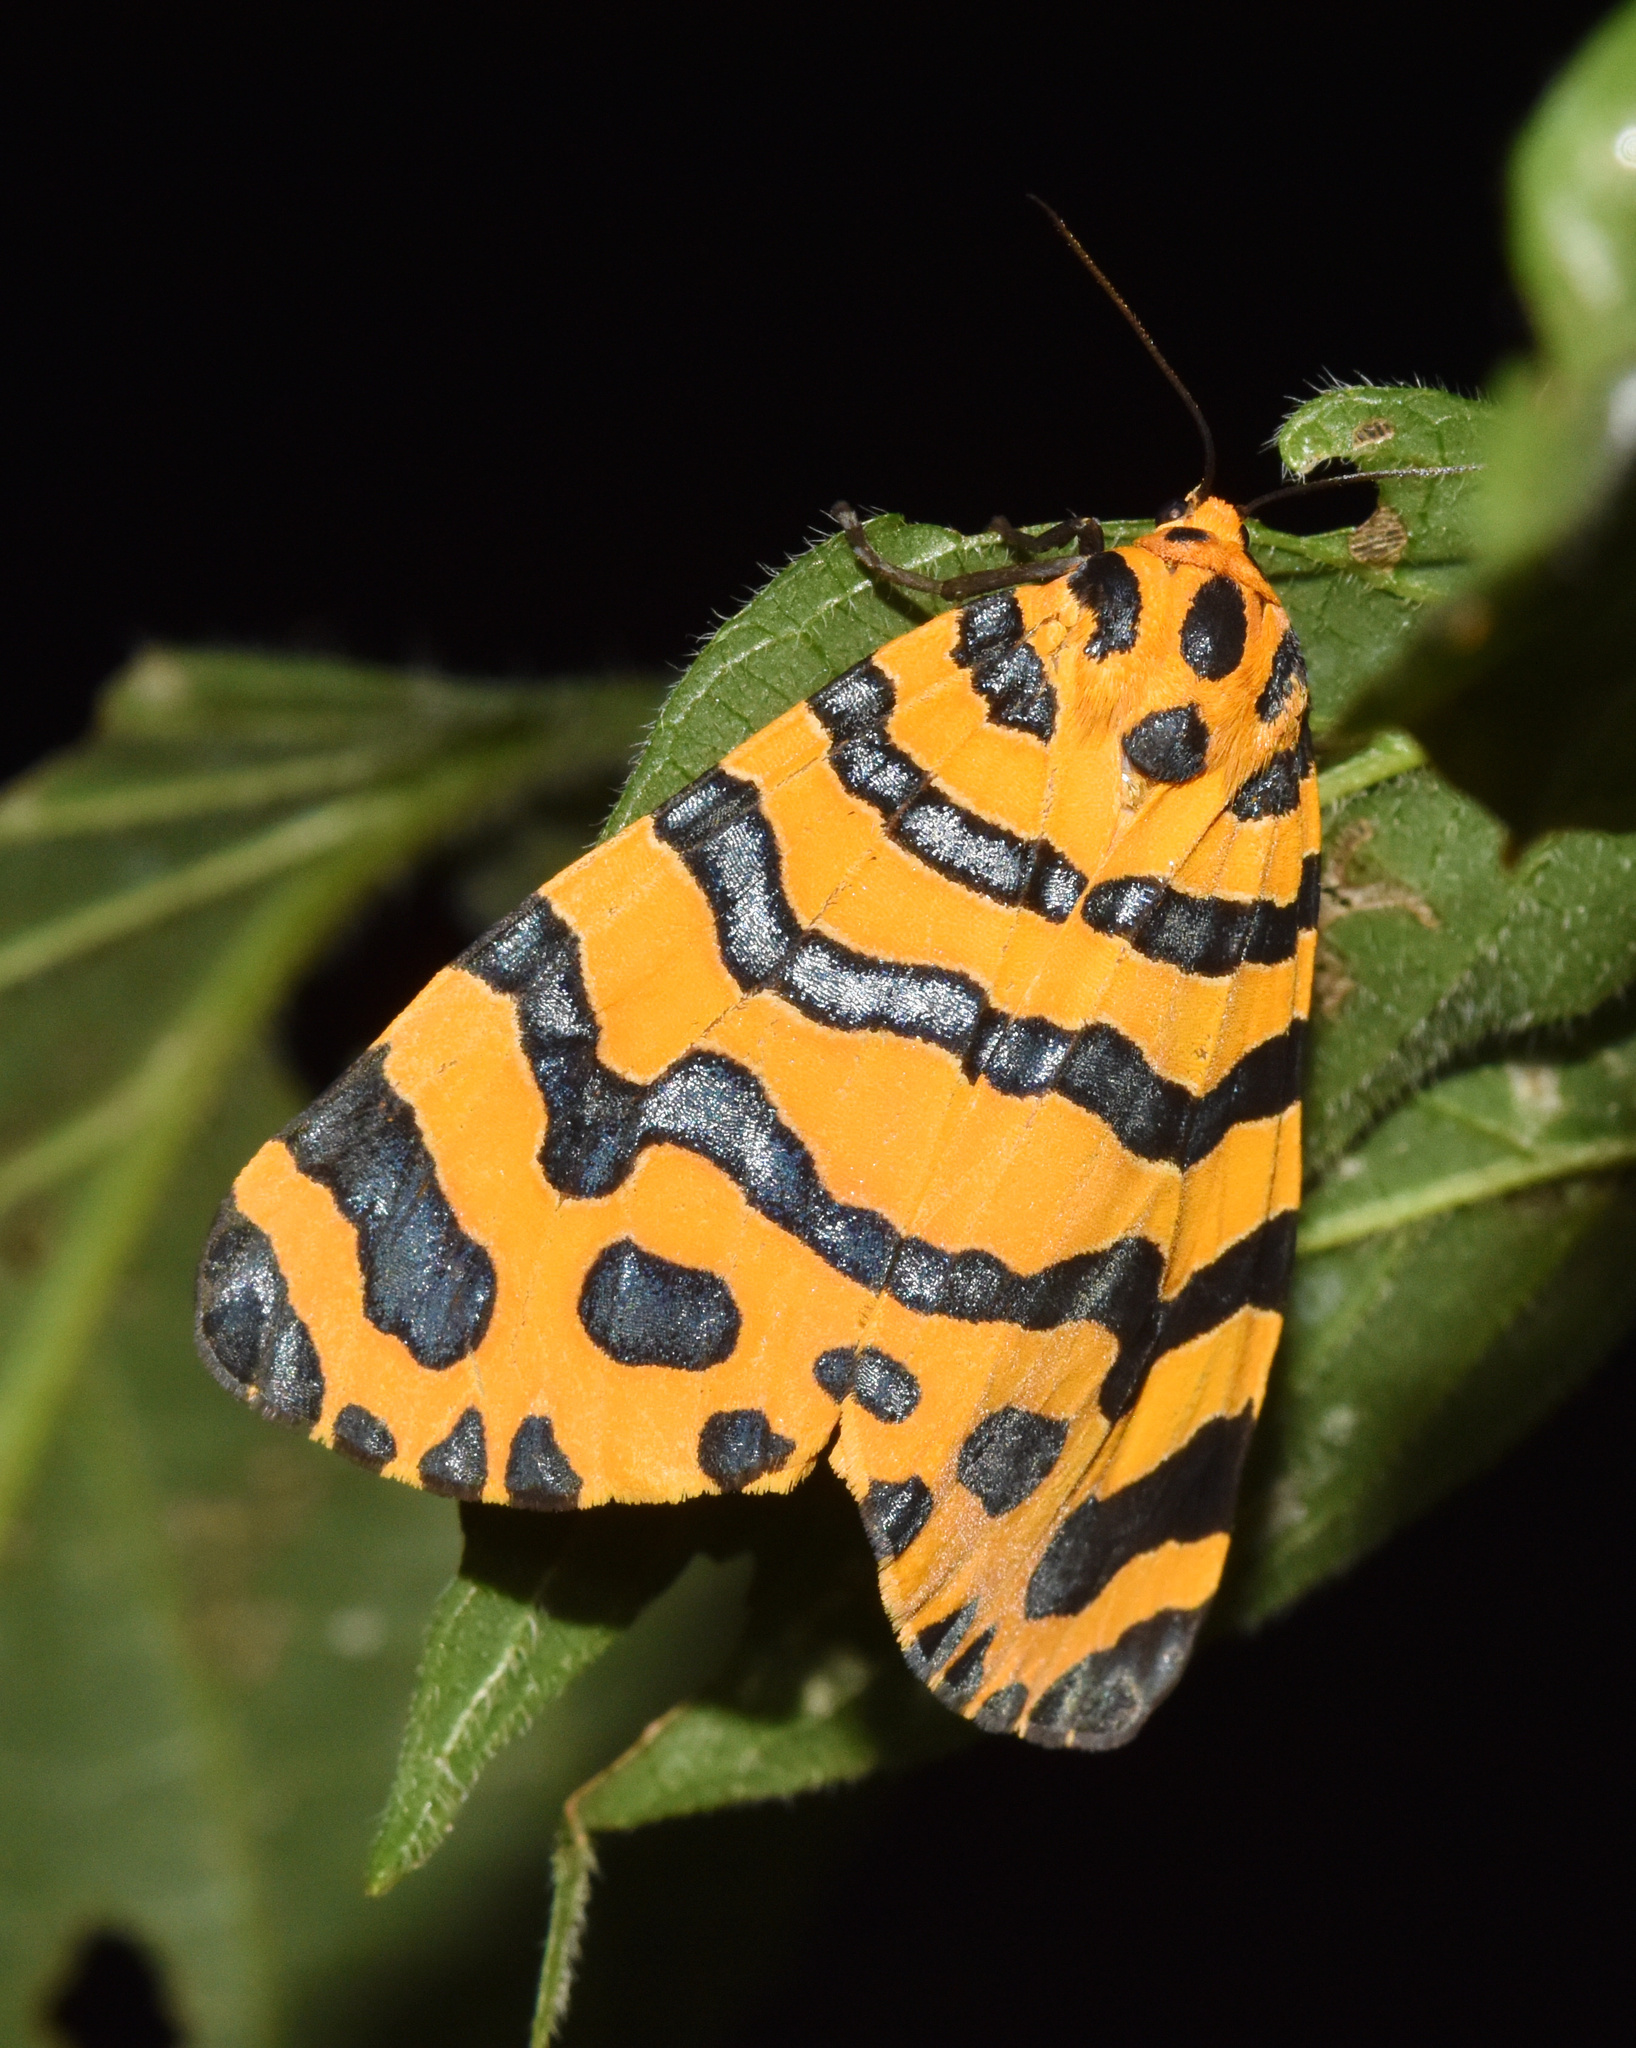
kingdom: Animalia
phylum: Arthropoda
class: Insecta
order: Lepidoptera
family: Erebidae
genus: Amphicallia
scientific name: Amphicallia bellatrix
